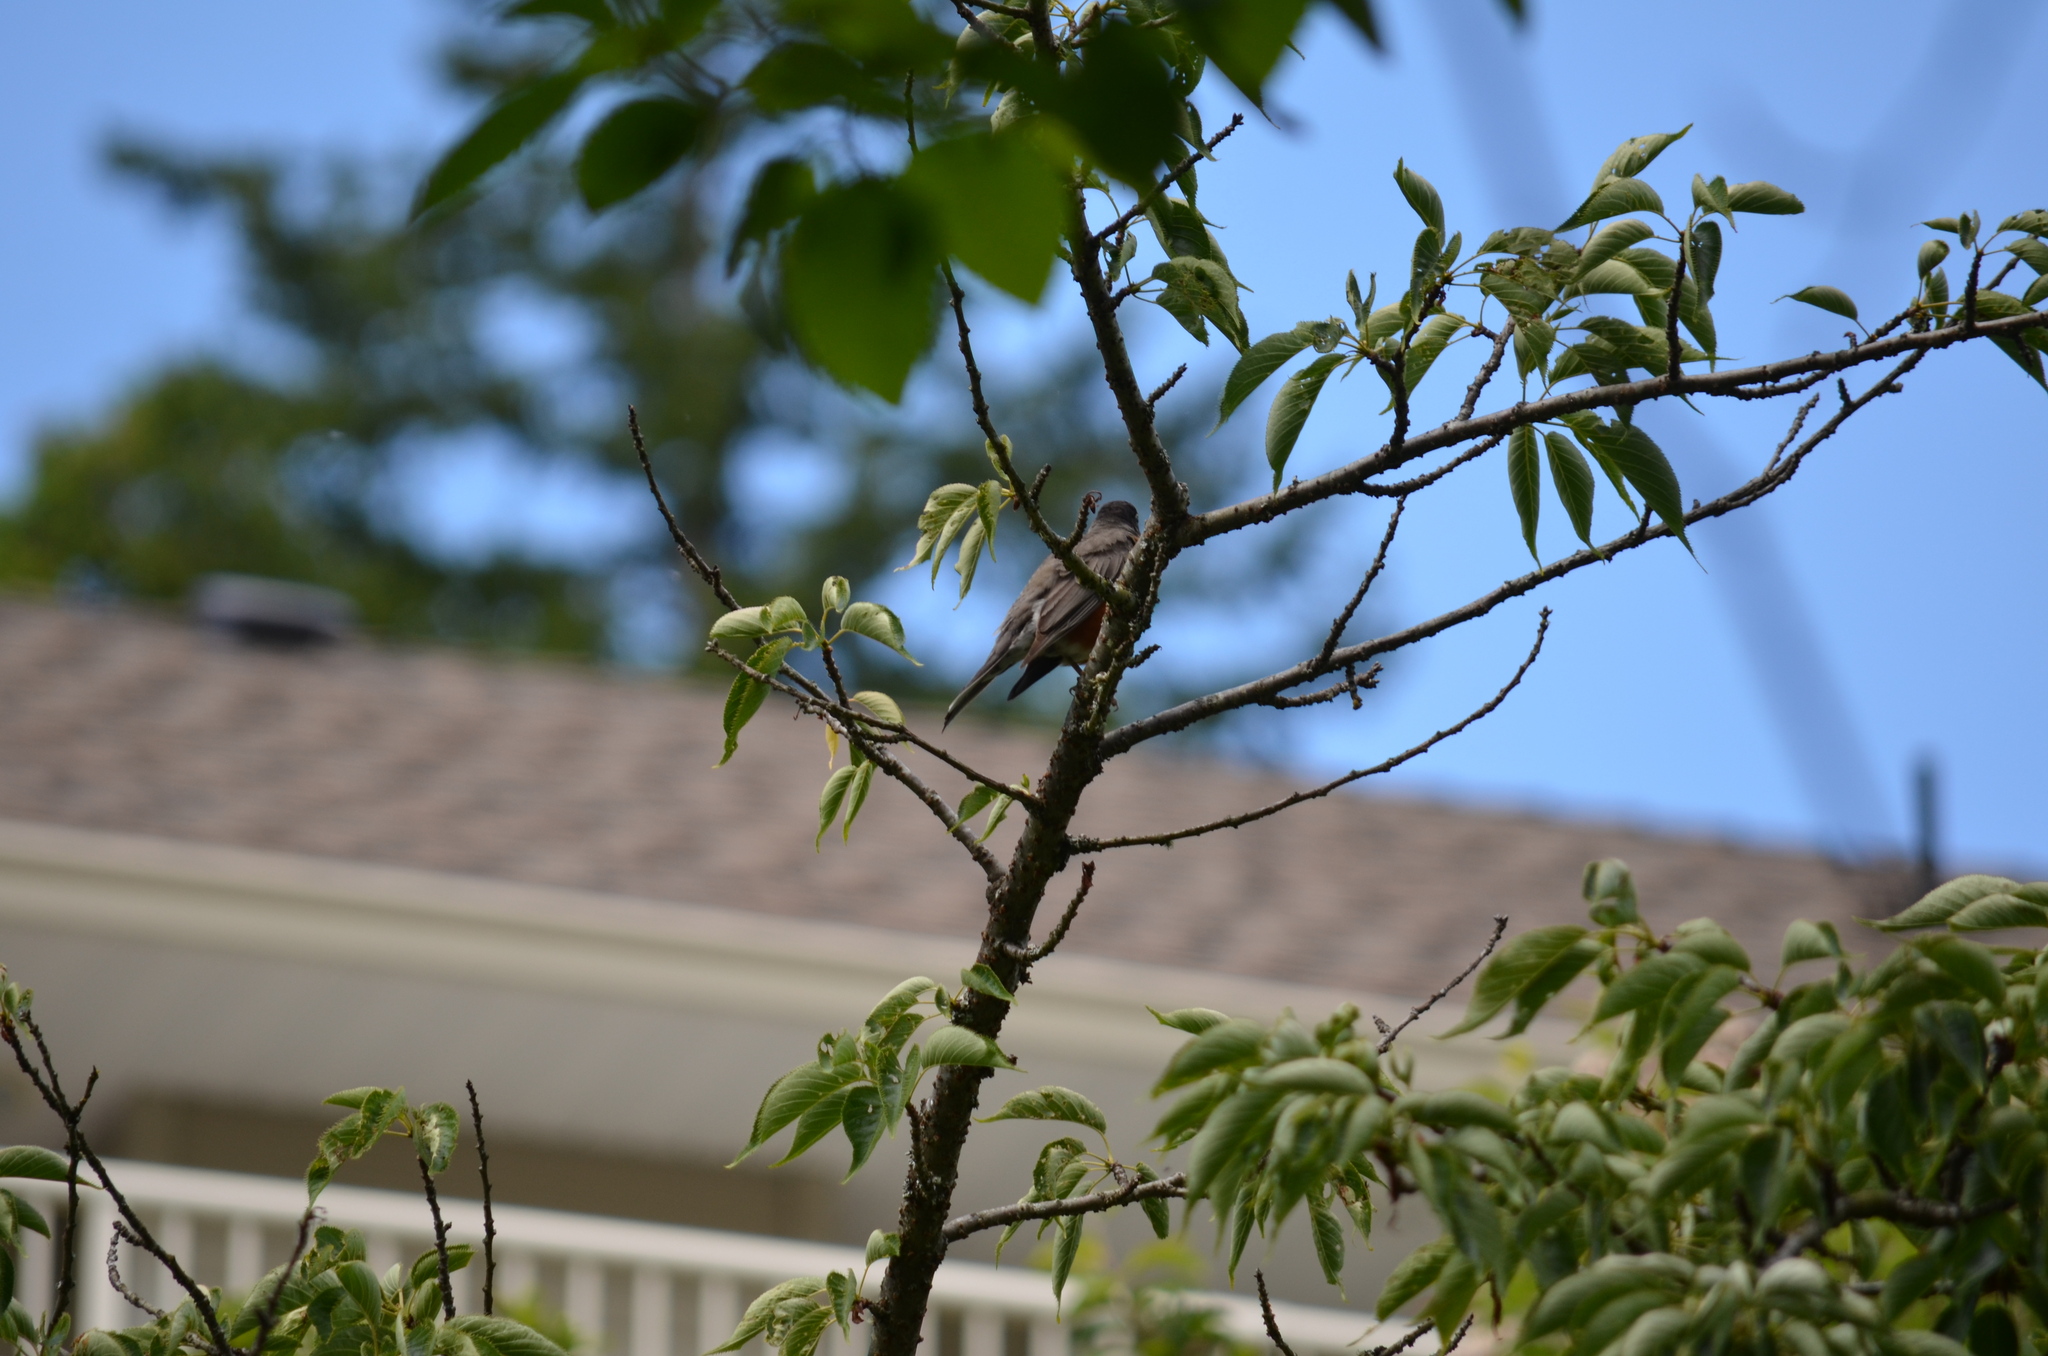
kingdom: Animalia
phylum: Chordata
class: Aves
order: Passeriformes
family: Turdidae
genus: Turdus
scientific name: Turdus migratorius
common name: American robin
